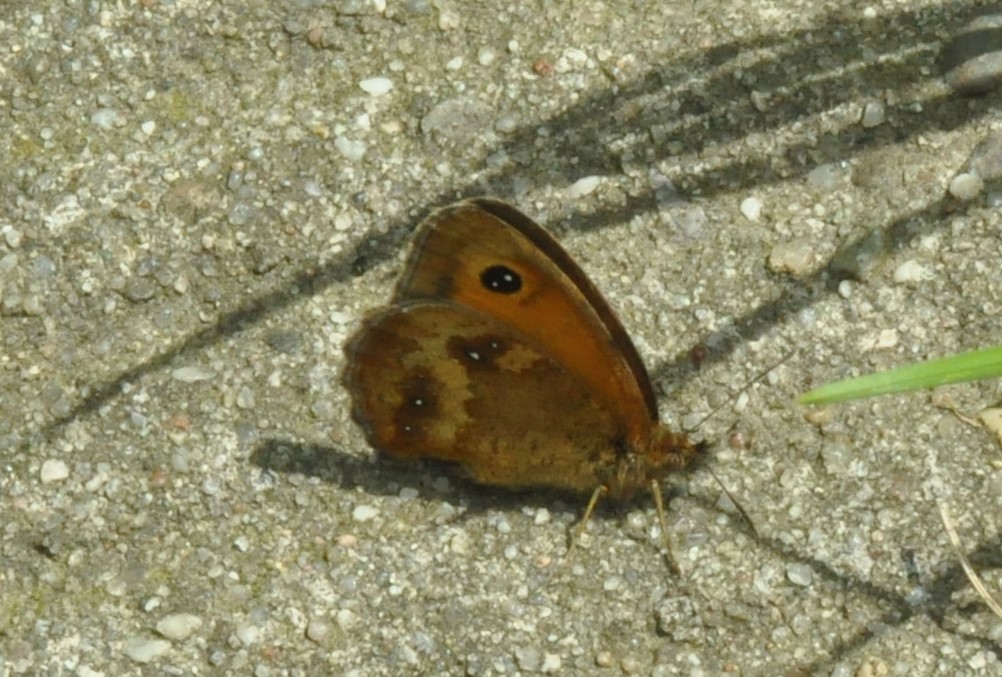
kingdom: Animalia
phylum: Arthropoda
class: Insecta
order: Lepidoptera
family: Nymphalidae
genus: Pyronia
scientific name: Pyronia tithonus
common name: Gatekeeper
